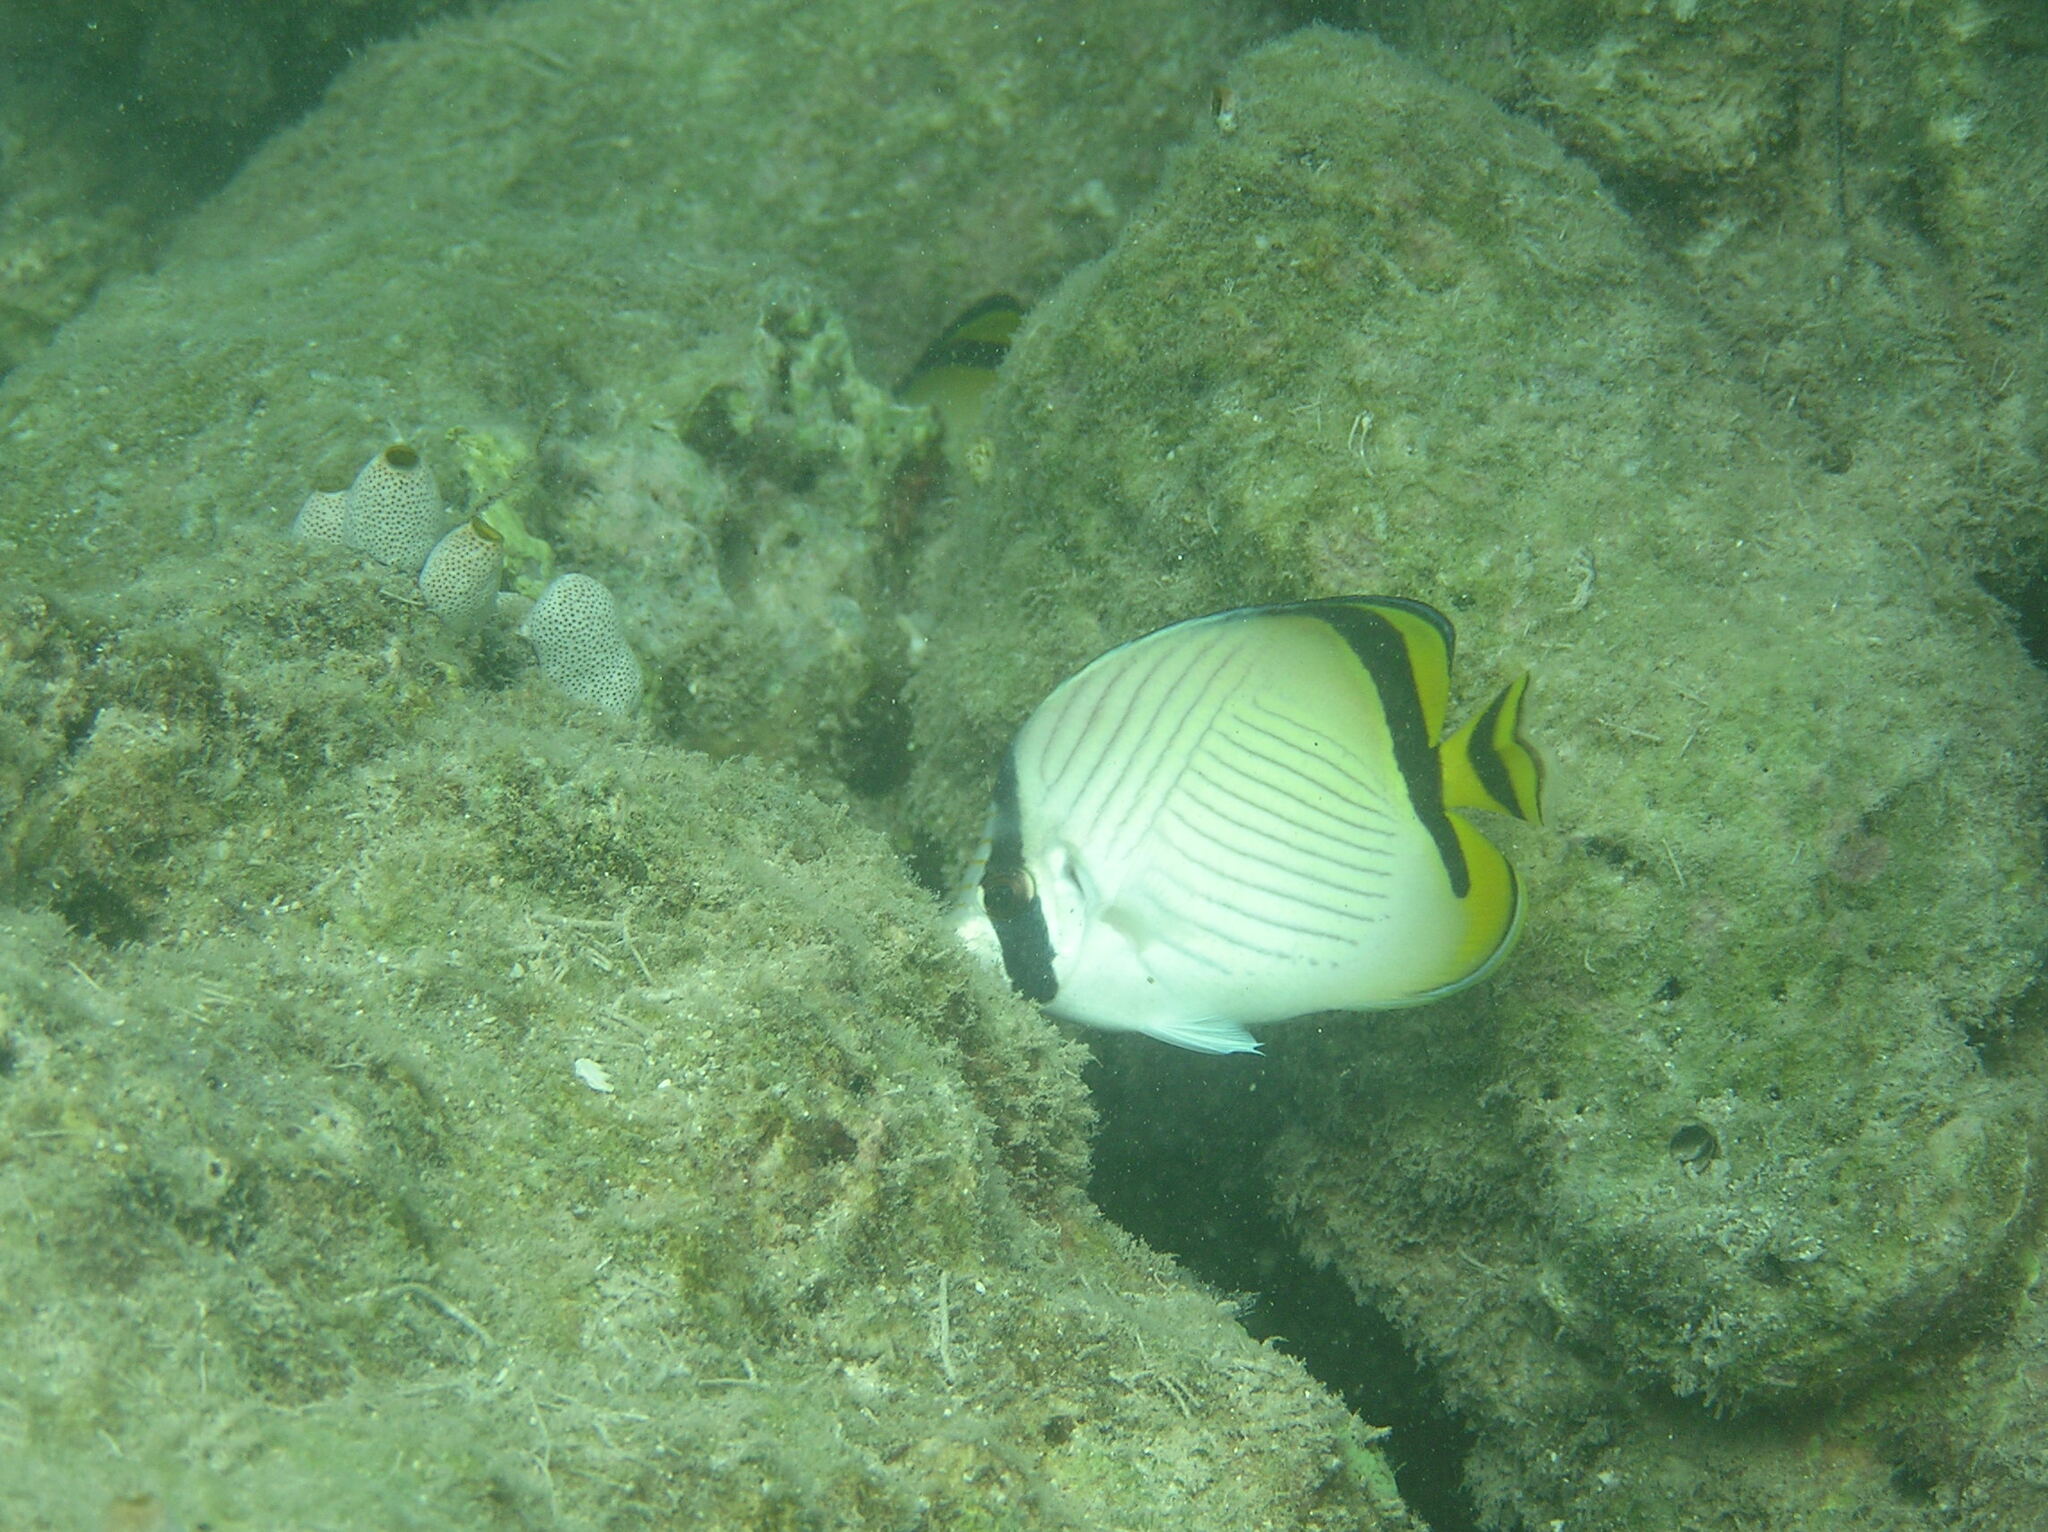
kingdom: Animalia
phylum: Chordata
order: Perciformes
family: Chaetodontidae
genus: Chaetodon
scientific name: Chaetodon vagabundus
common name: Vagabond butterflyfish
